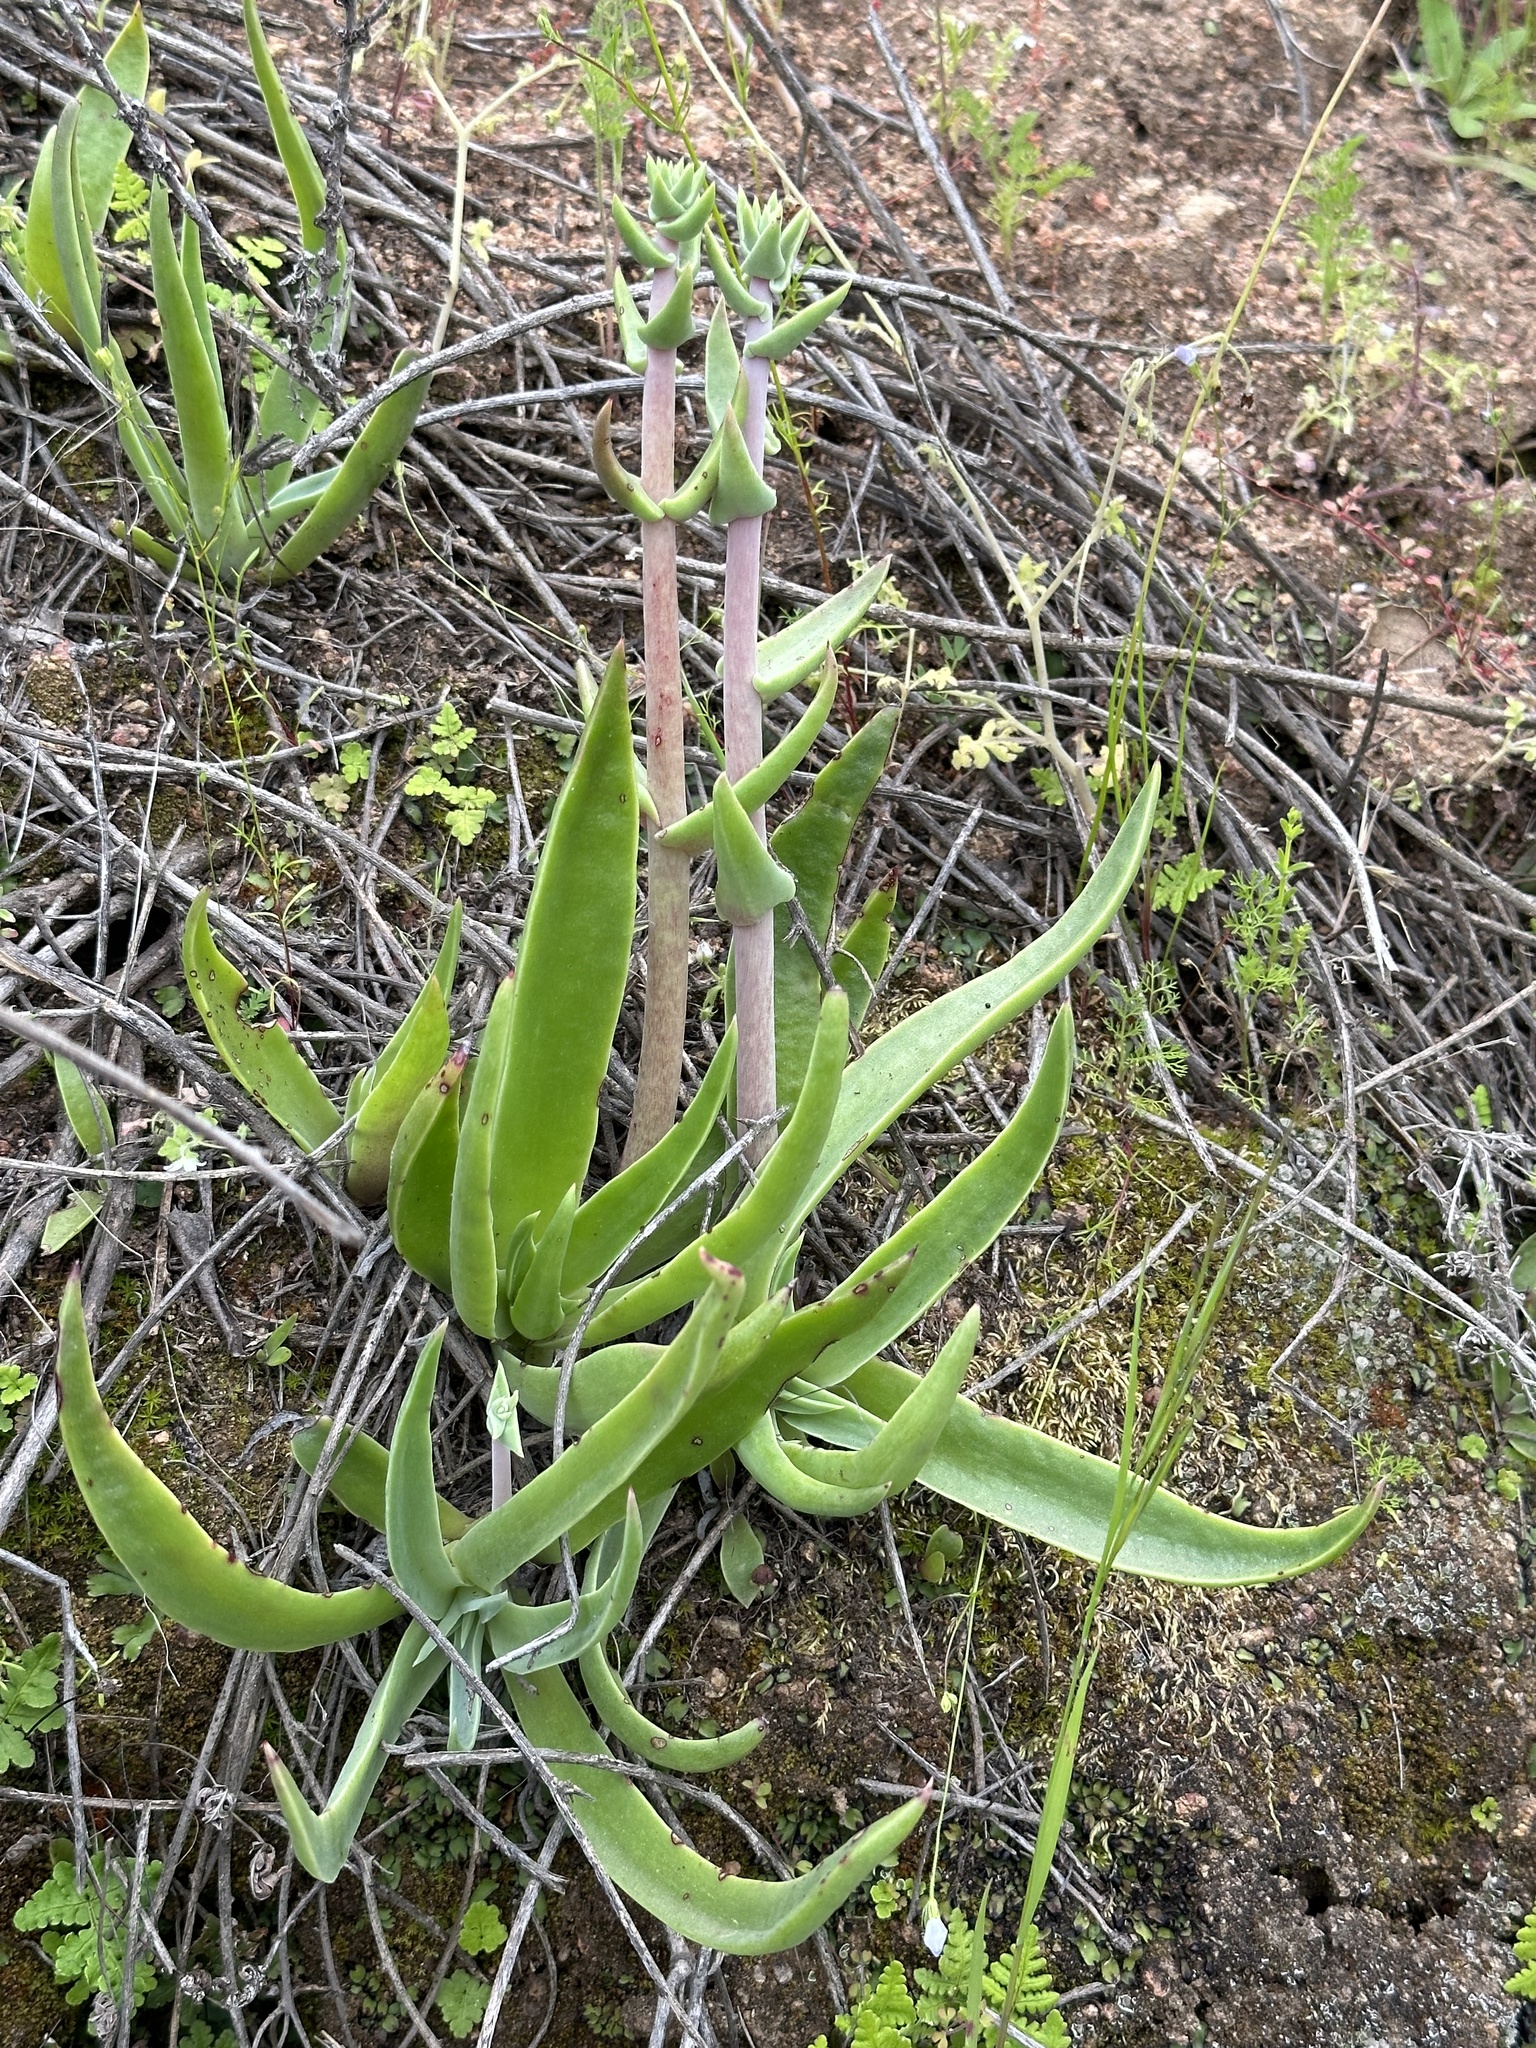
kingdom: Plantae
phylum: Tracheophyta
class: Magnoliopsida
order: Saxifragales
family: Crassulaceae
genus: Dudleya
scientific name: Dudleya lanceolata
